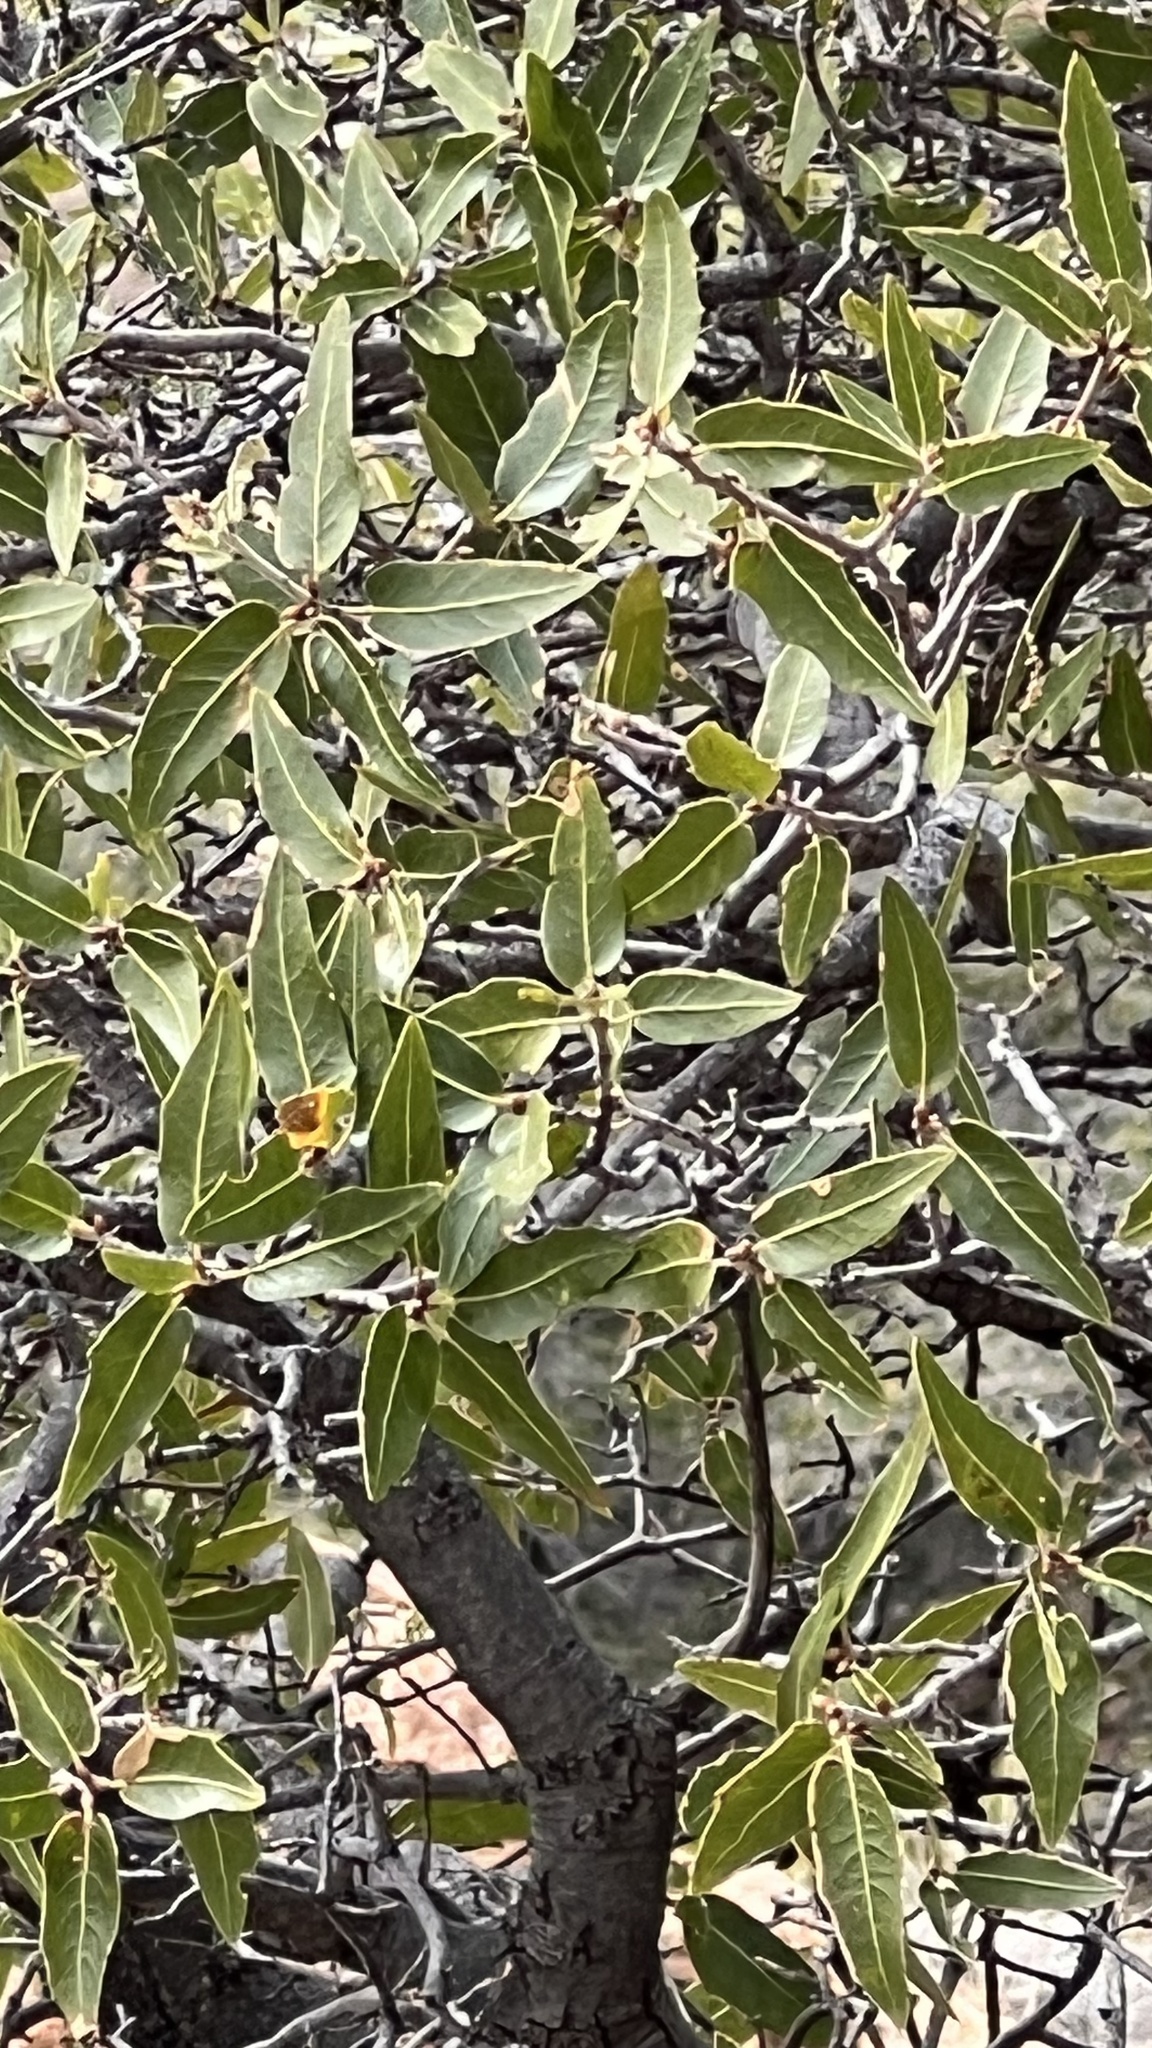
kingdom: Plantae
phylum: Tracheophyta
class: Magnoliopsida
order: Fagales
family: Fagaceae
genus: Quercus
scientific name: Quercus emoryi
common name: Emory oak
